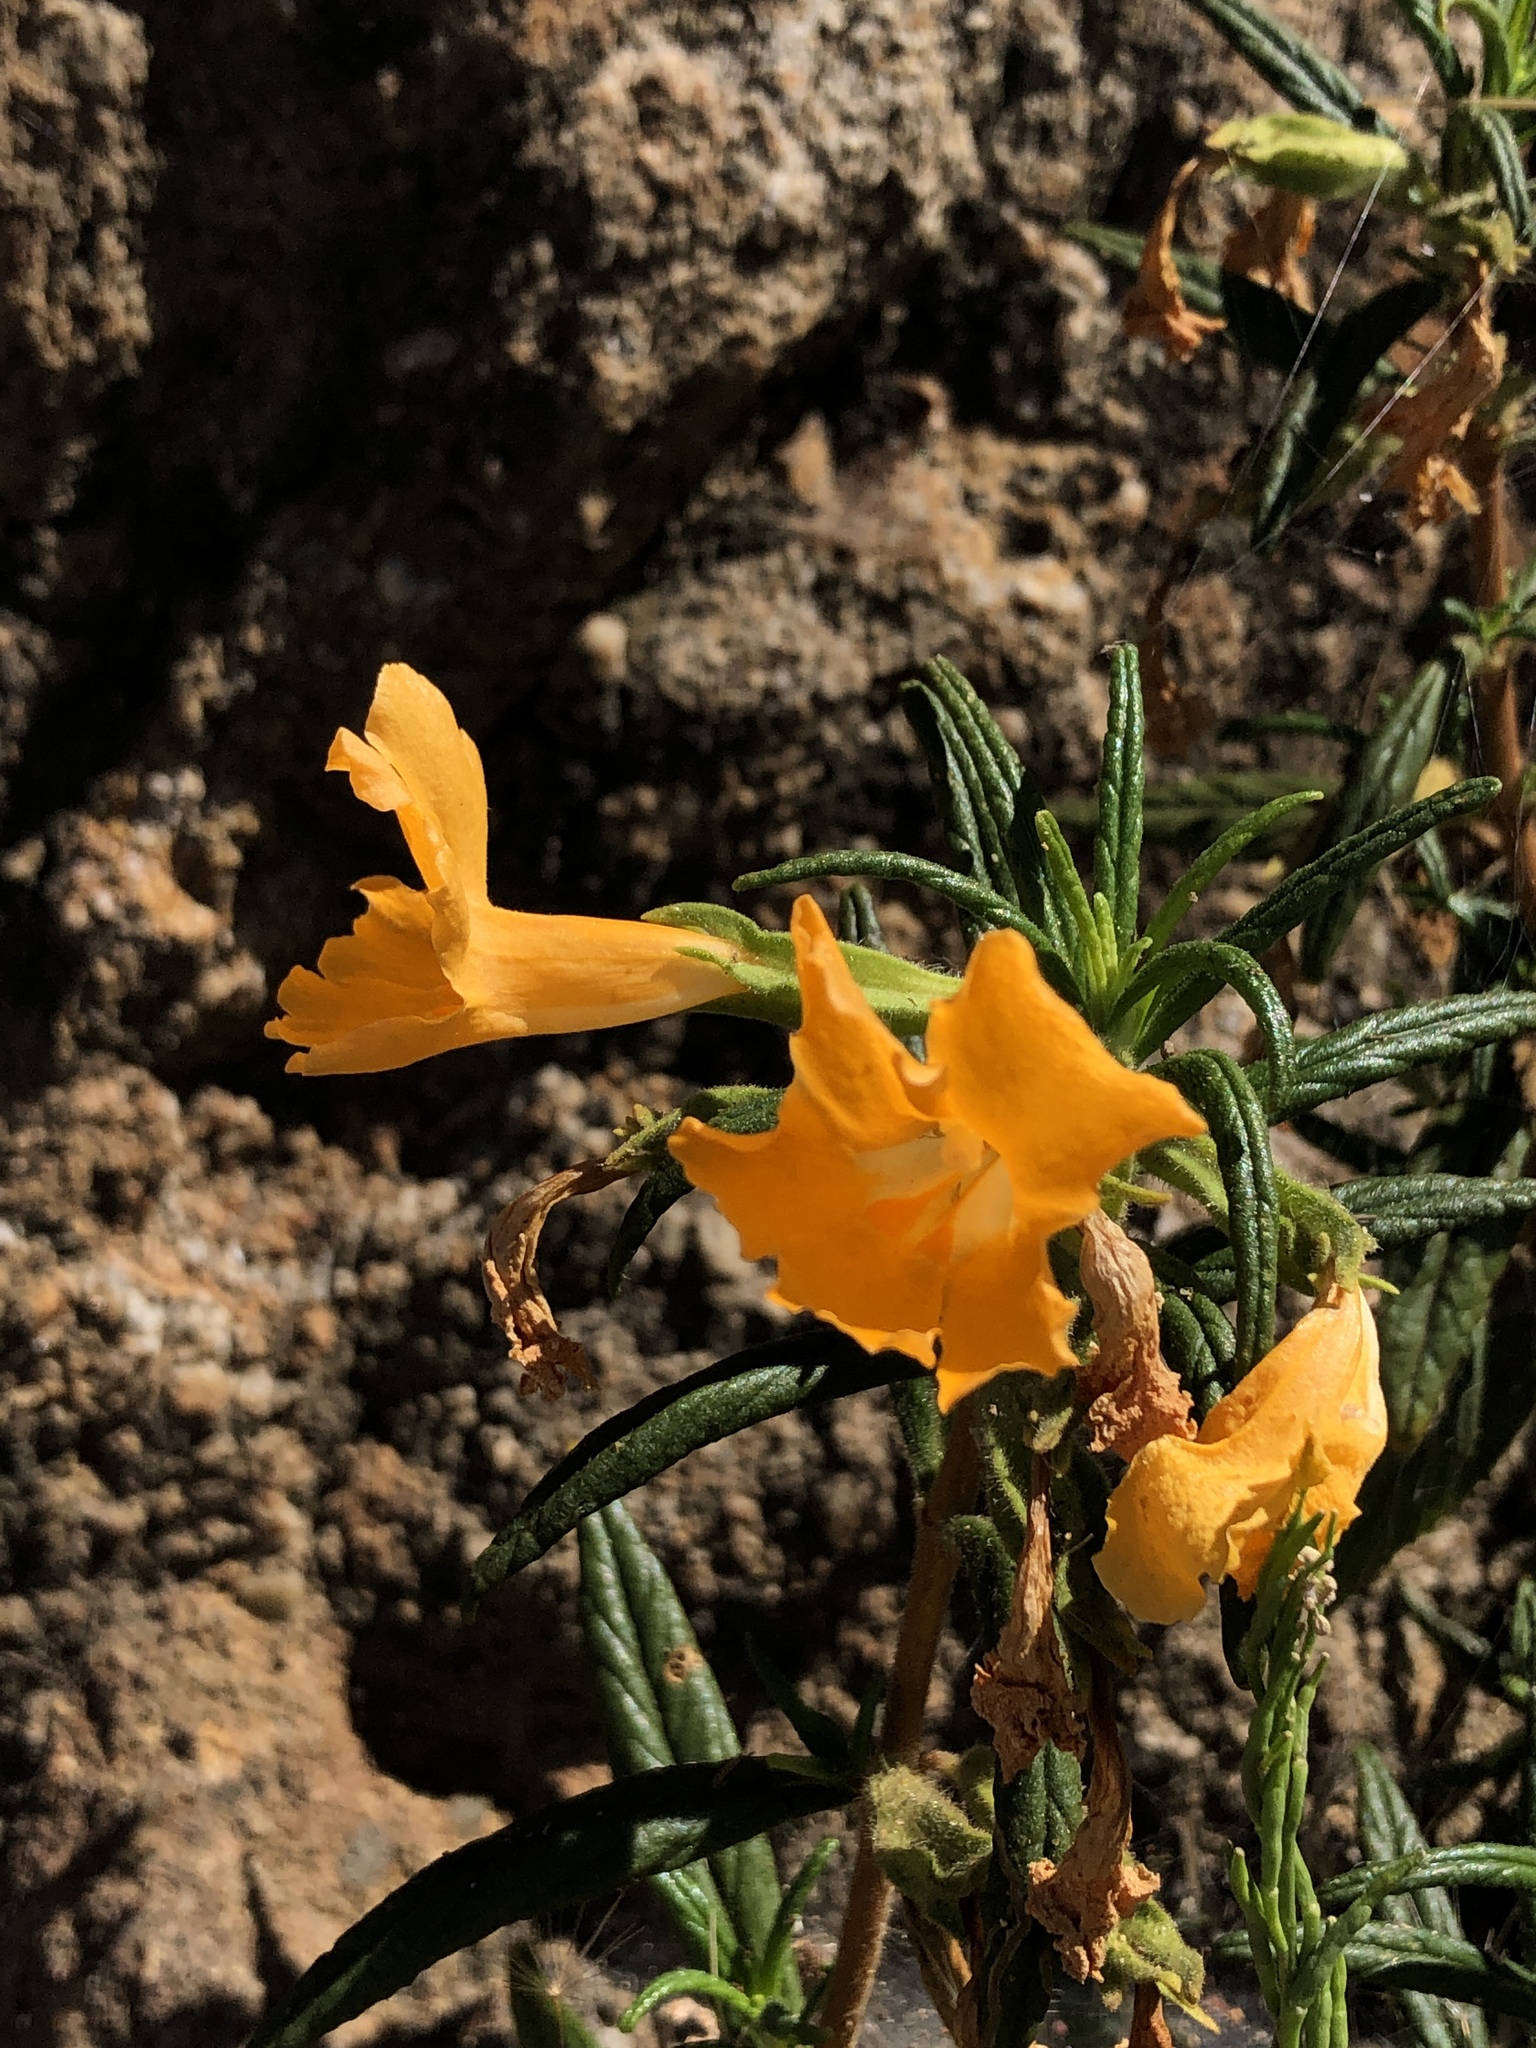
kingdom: Plantae
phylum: Tracheophyta
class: Magnoliopsida
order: Lamiales
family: Phrymaceae
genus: Diplacus
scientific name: Diplacus longiflorus
